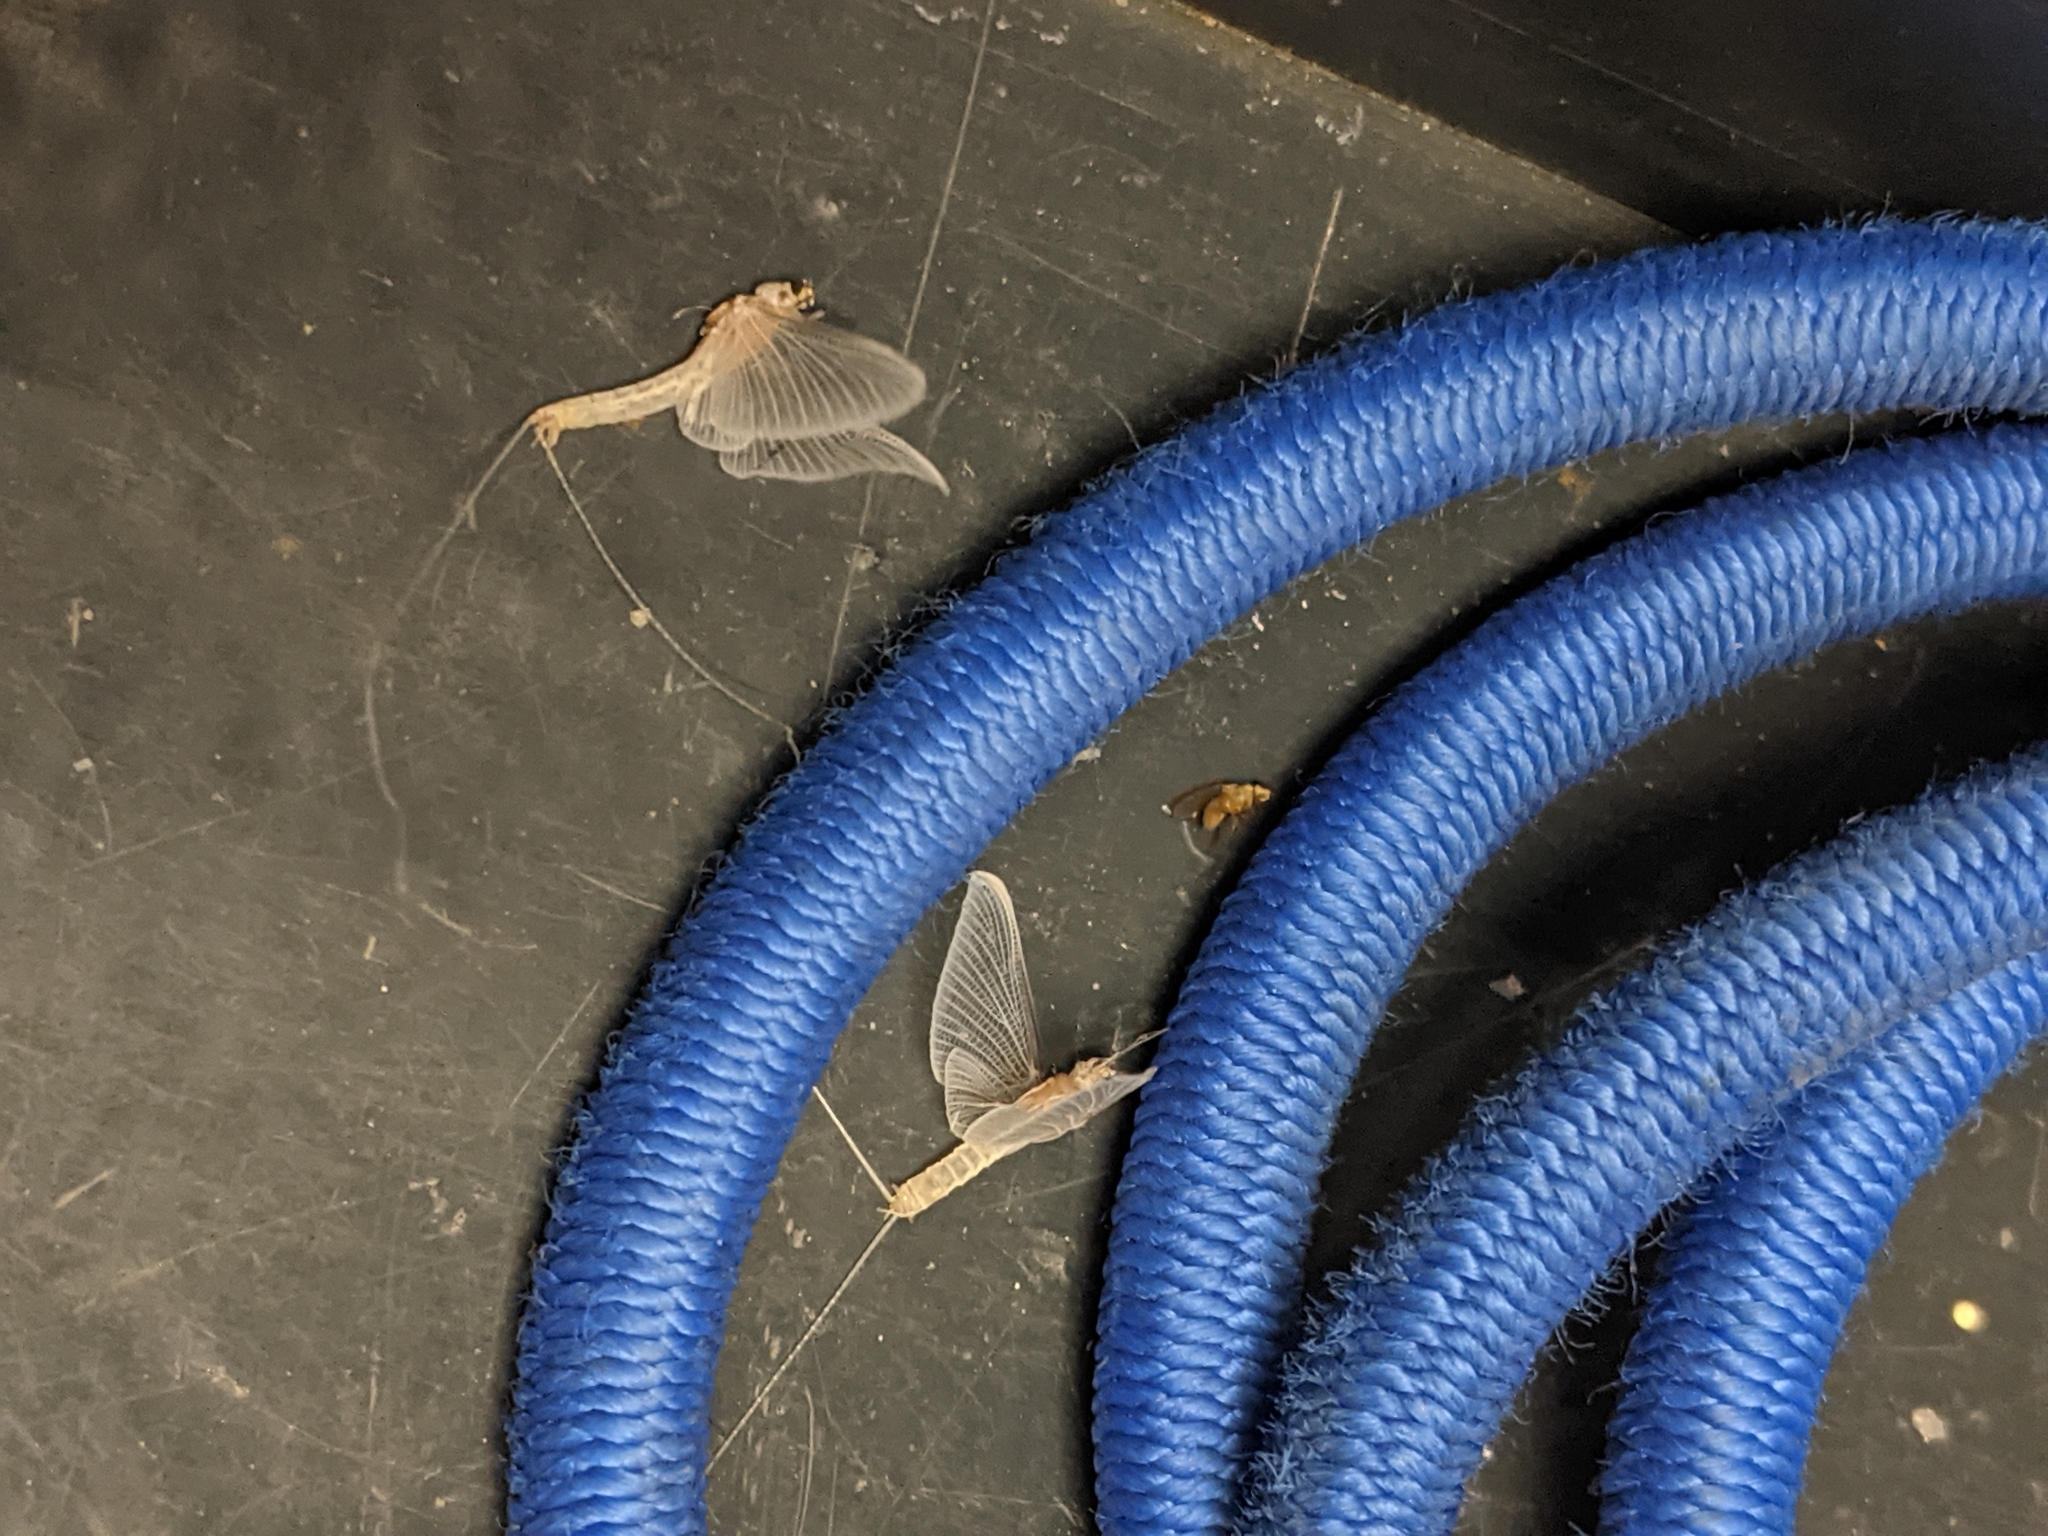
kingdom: Animalia
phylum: Arthropoda
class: Insecta
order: Ephemeroptera
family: Baetidae
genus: Cloeon
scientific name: Cloeon dipterum
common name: Pond olive
